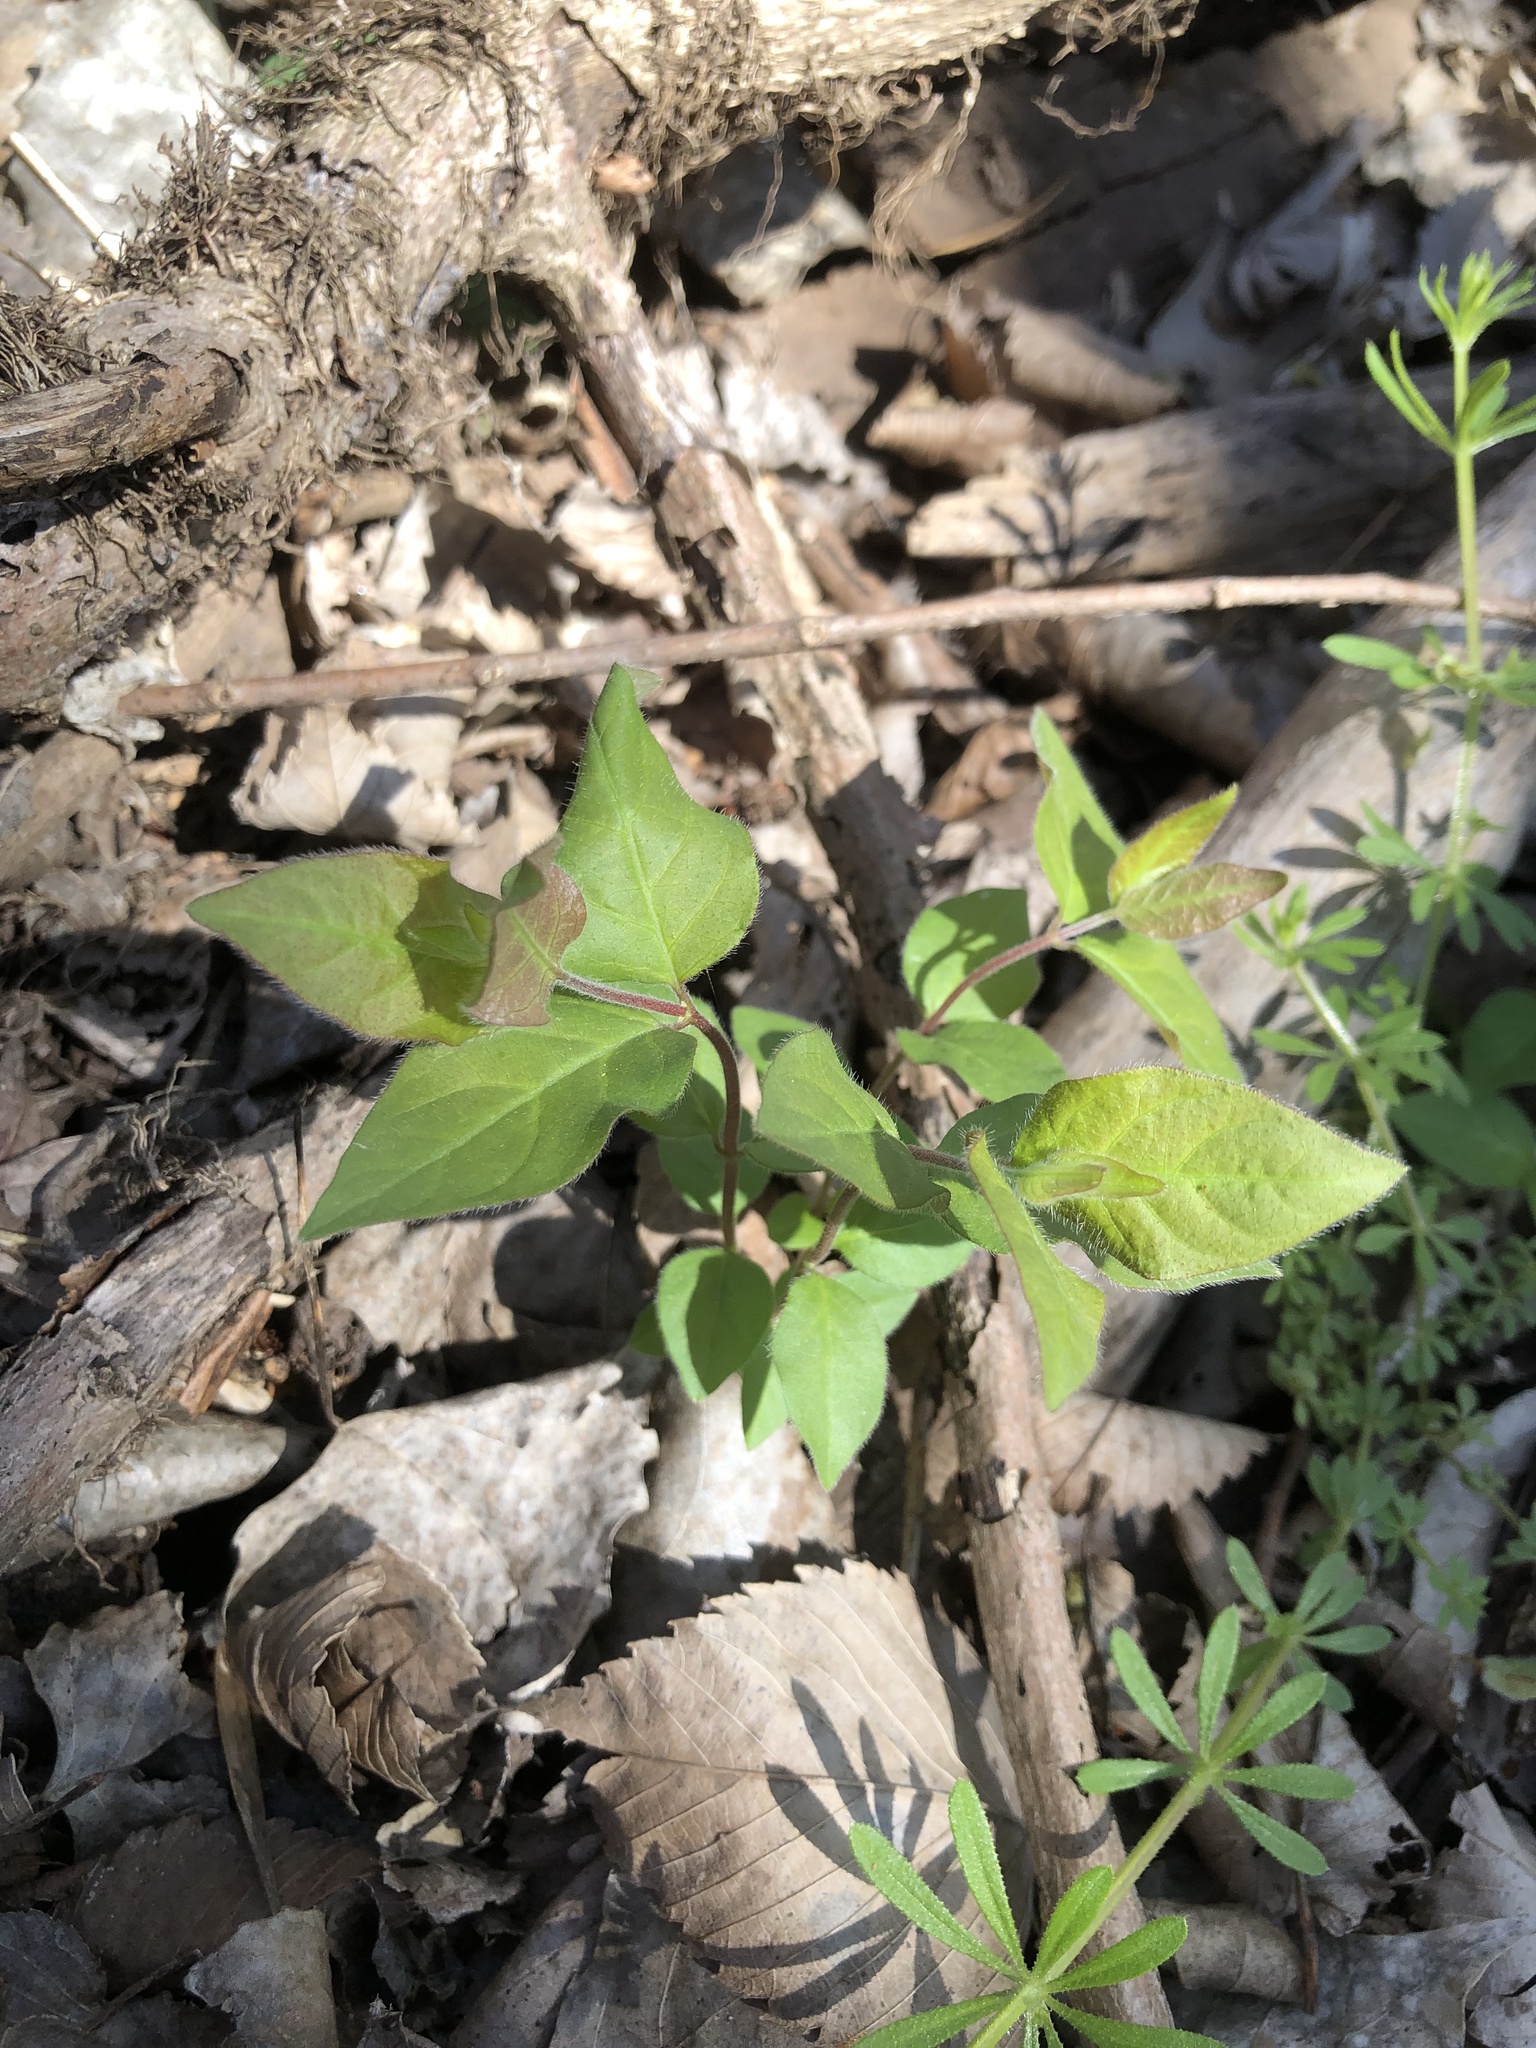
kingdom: Plantae
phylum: Tracheophyta
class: Magnoliopsida
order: Dipsacales
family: Caprifoliaceae
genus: Lonicera
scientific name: Lonicera maackii
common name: Amur honeysuckle
